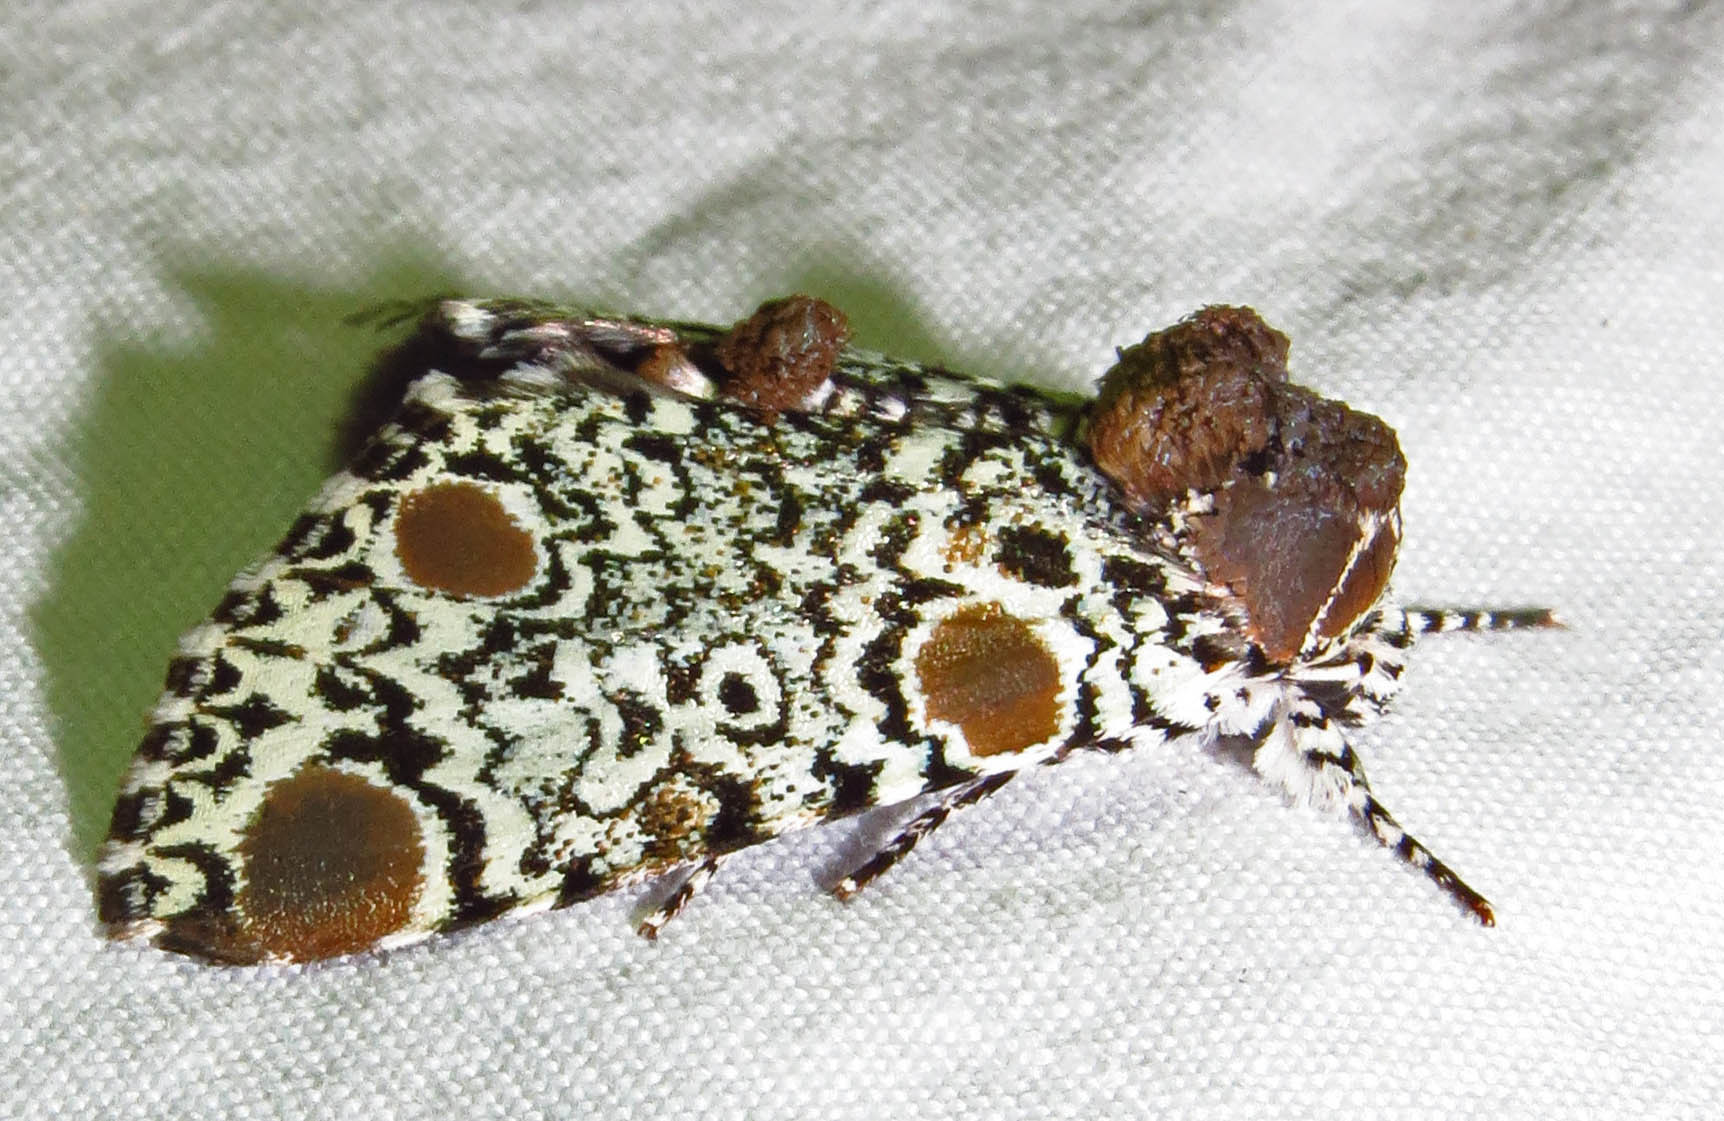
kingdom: Animalia
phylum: Arthropoda
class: Insecta
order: Lepidoptera
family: Noctuidae
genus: Harrisimemna
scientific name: Harrisimemna trisignata
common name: Harris threespot
